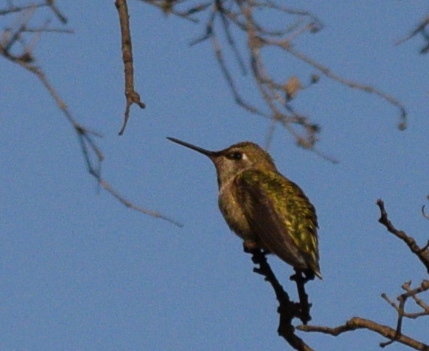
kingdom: Animalia
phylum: Chordata
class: Aves
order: Apodiformes
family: Trochilidae
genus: Calypte
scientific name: Calypte anna
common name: Anna's hummingbird
